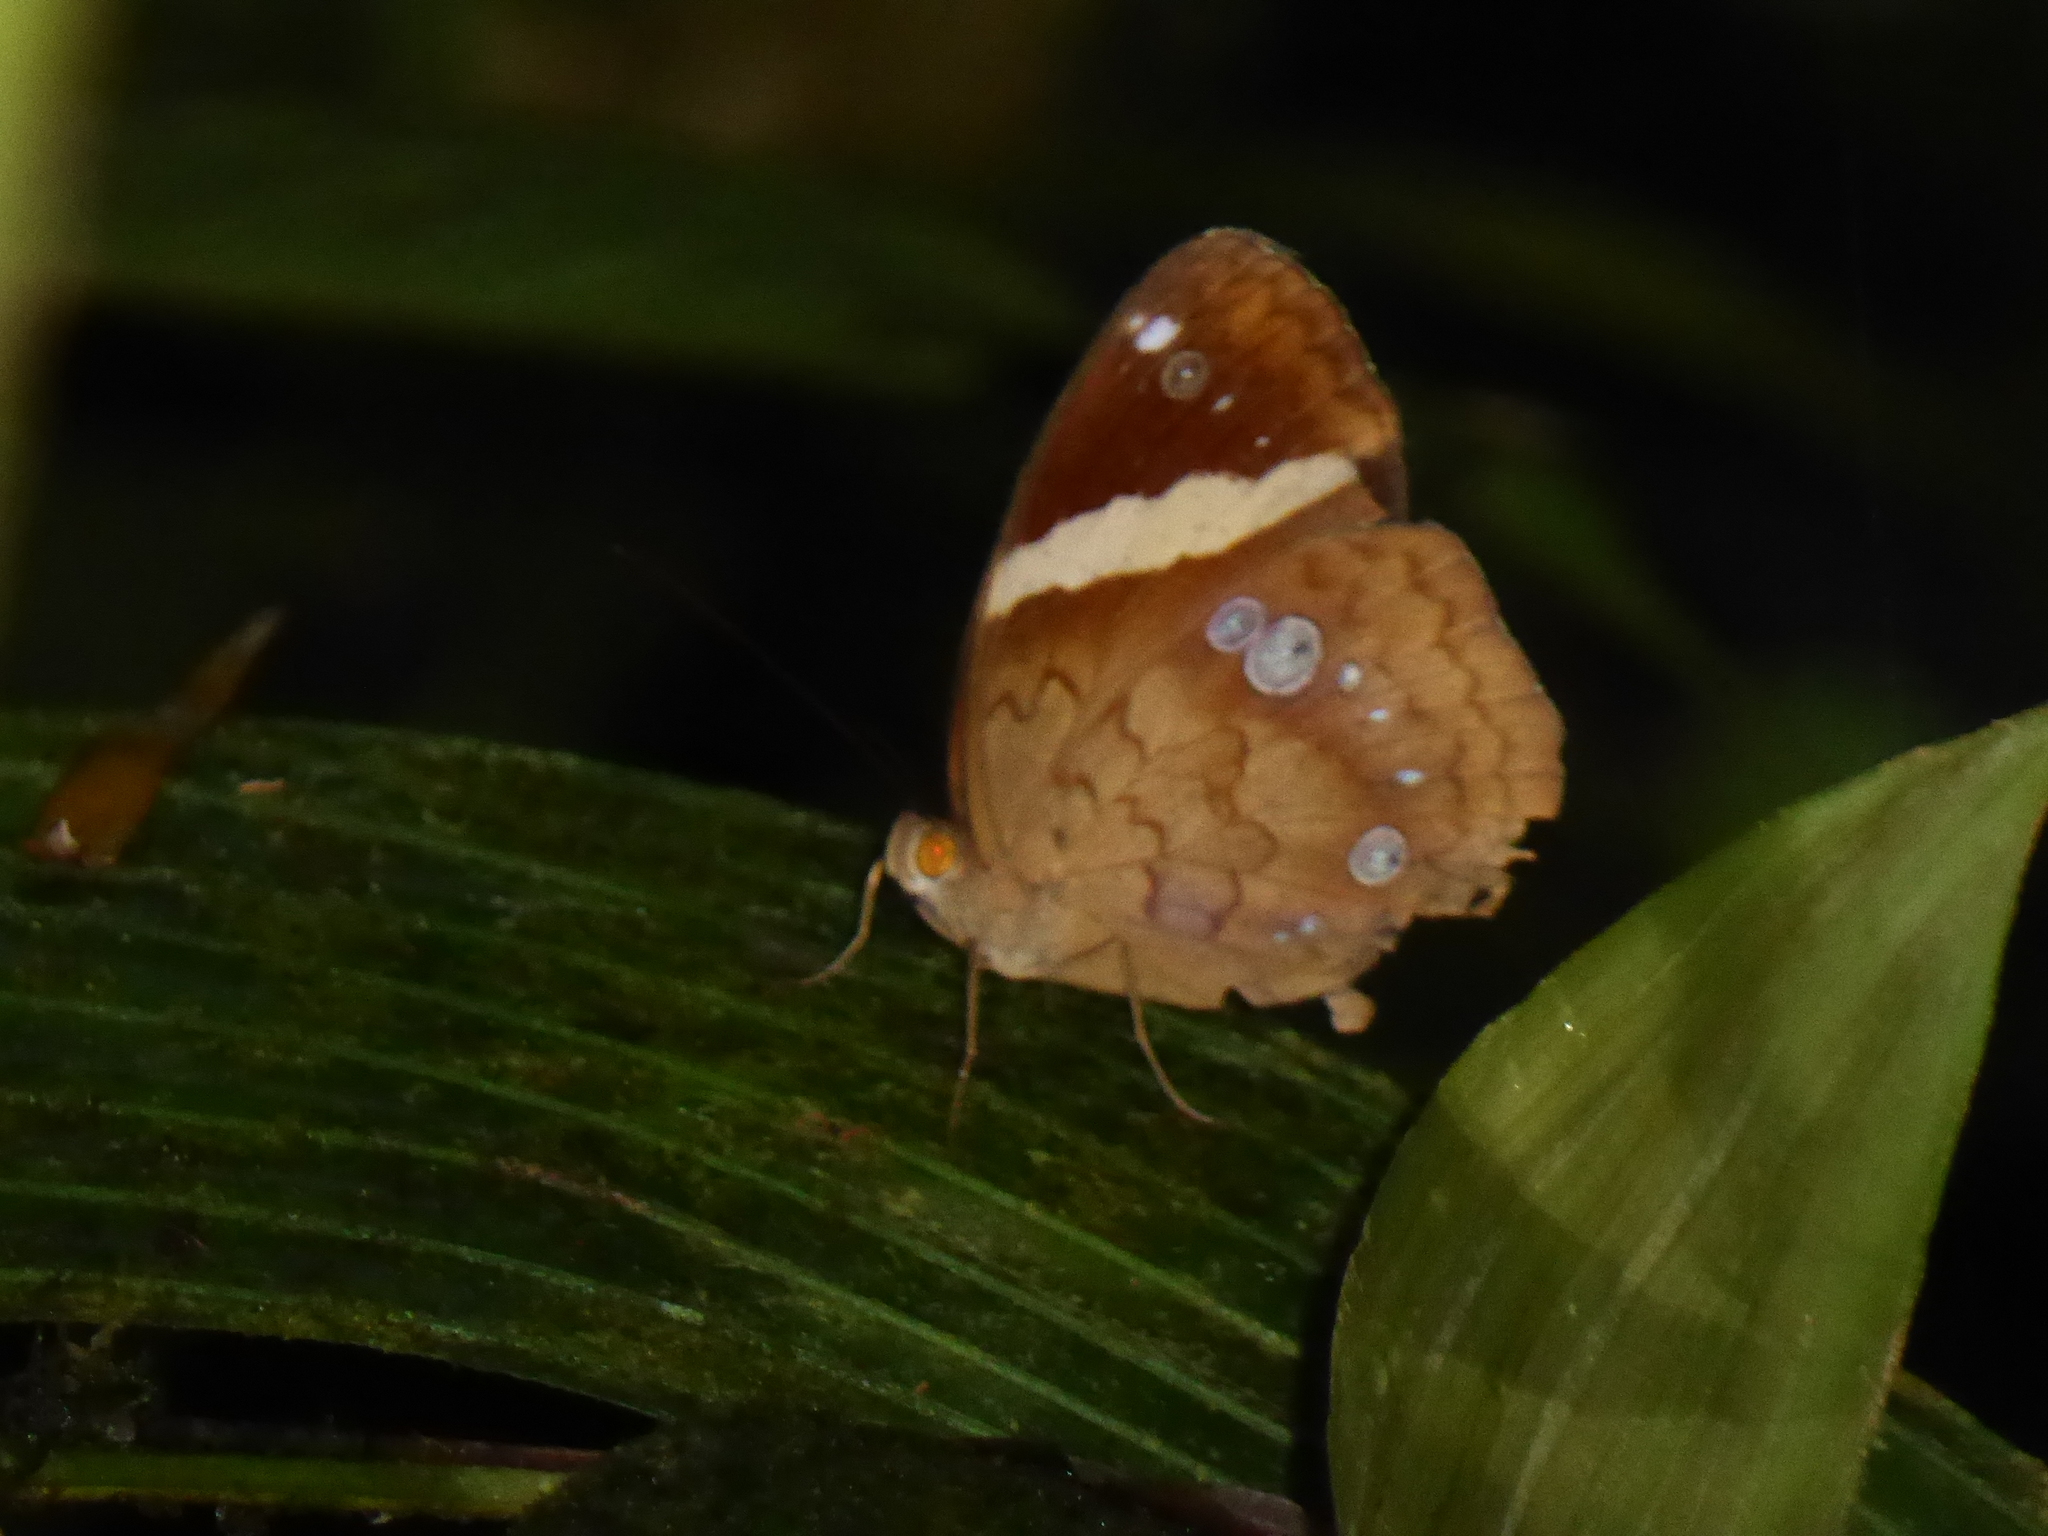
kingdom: Animalia
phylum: Arthropoda
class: Insecta
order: Lepidoptera
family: Nymphalidae
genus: Xanthotaenia
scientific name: Xanthotaenia busiris
